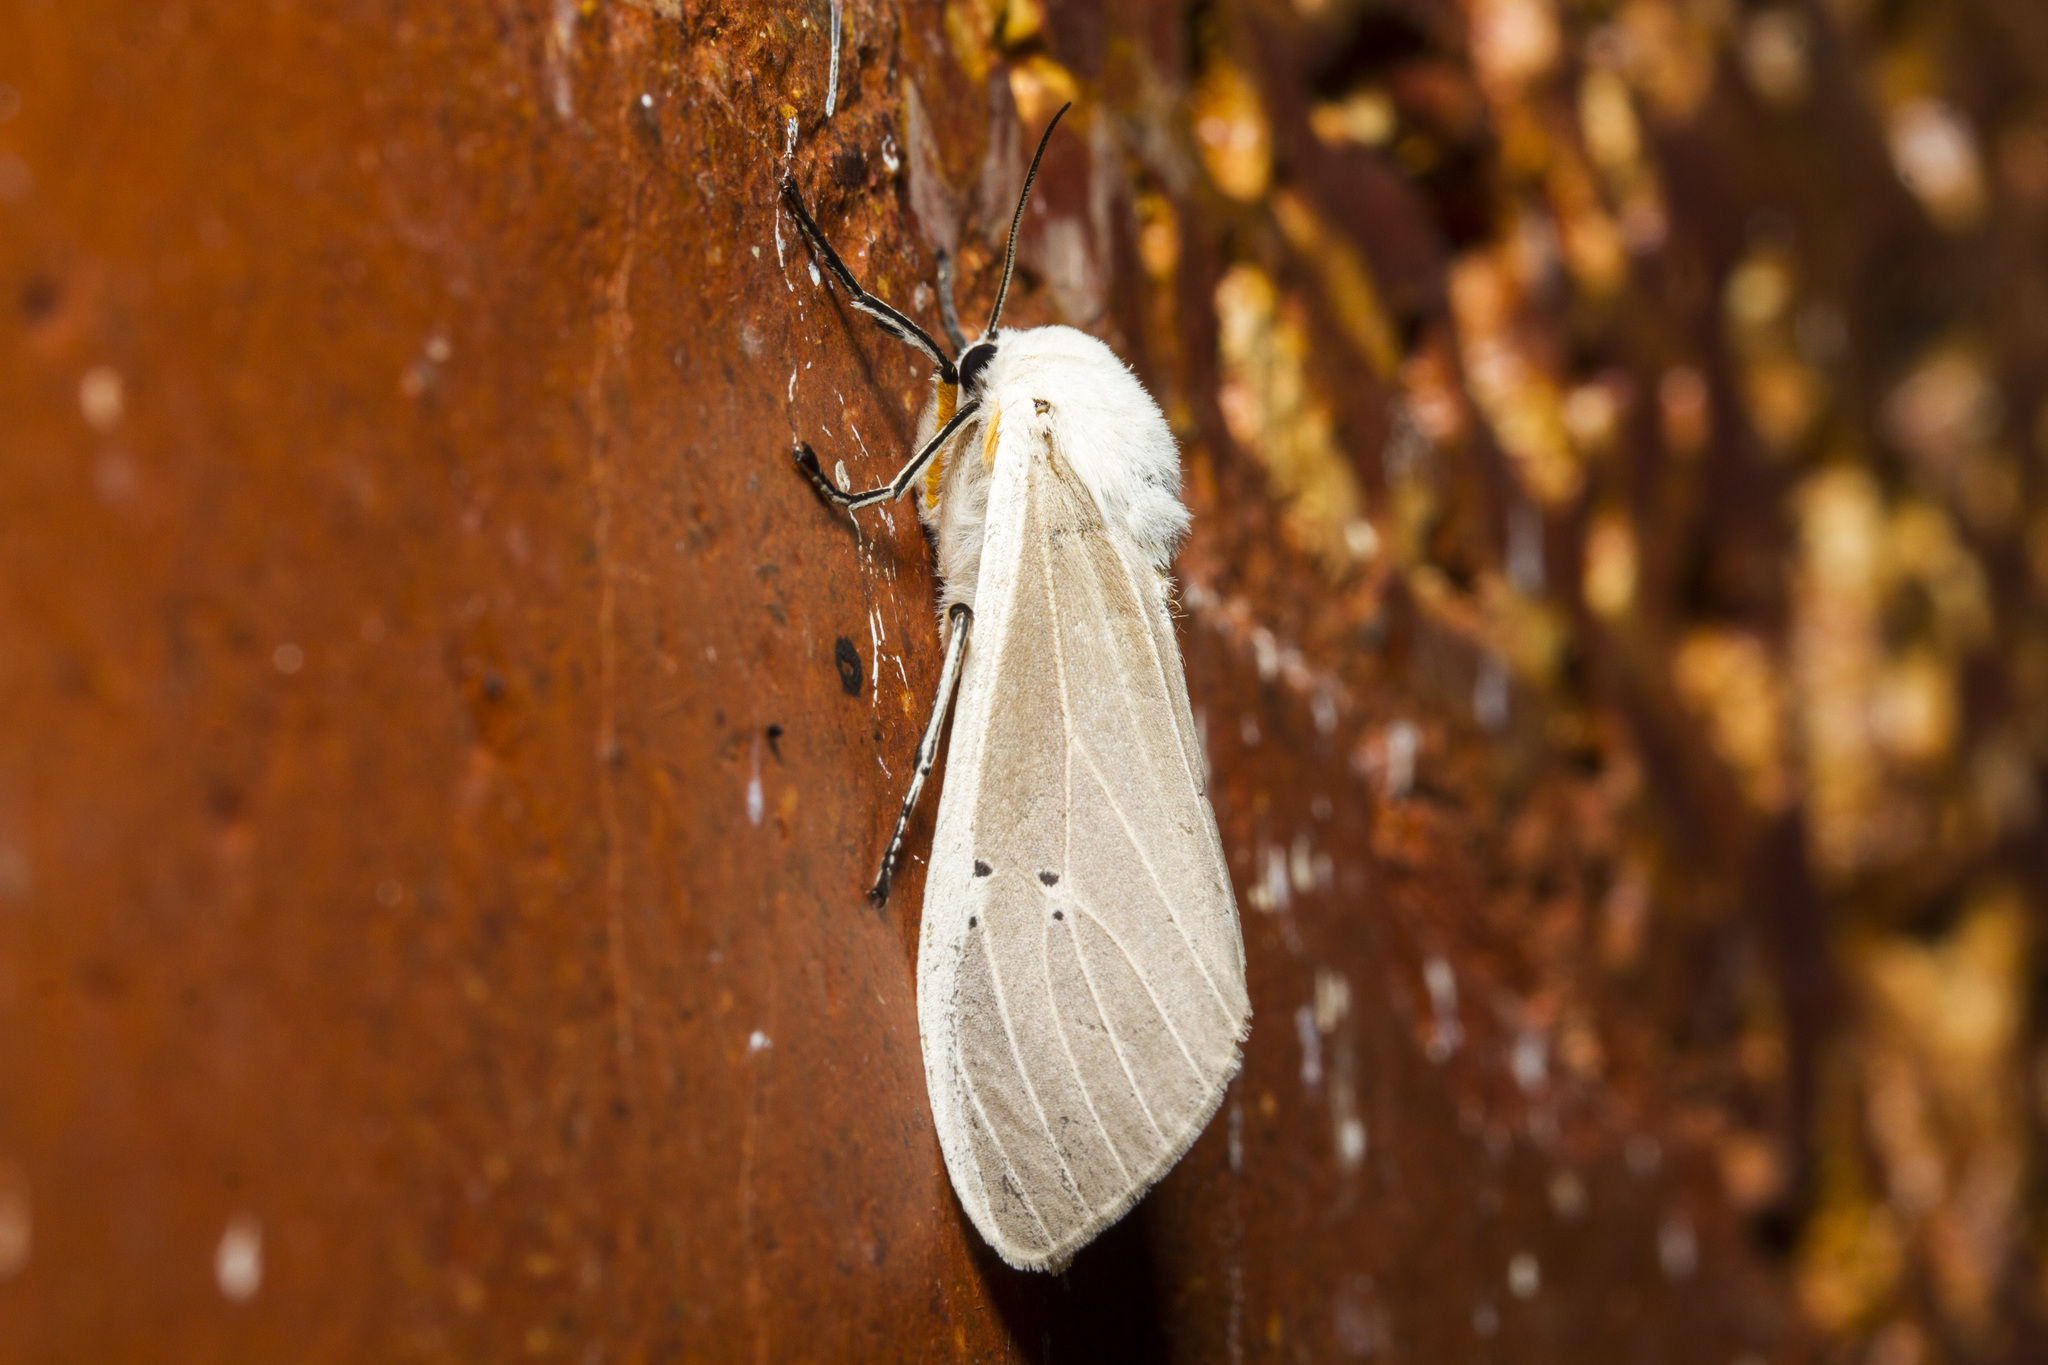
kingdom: Animalia
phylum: Arthropoda
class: Insecta
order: Lepidoptera
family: Erebidae
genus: Creatonotos
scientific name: Creatonotos transiens
